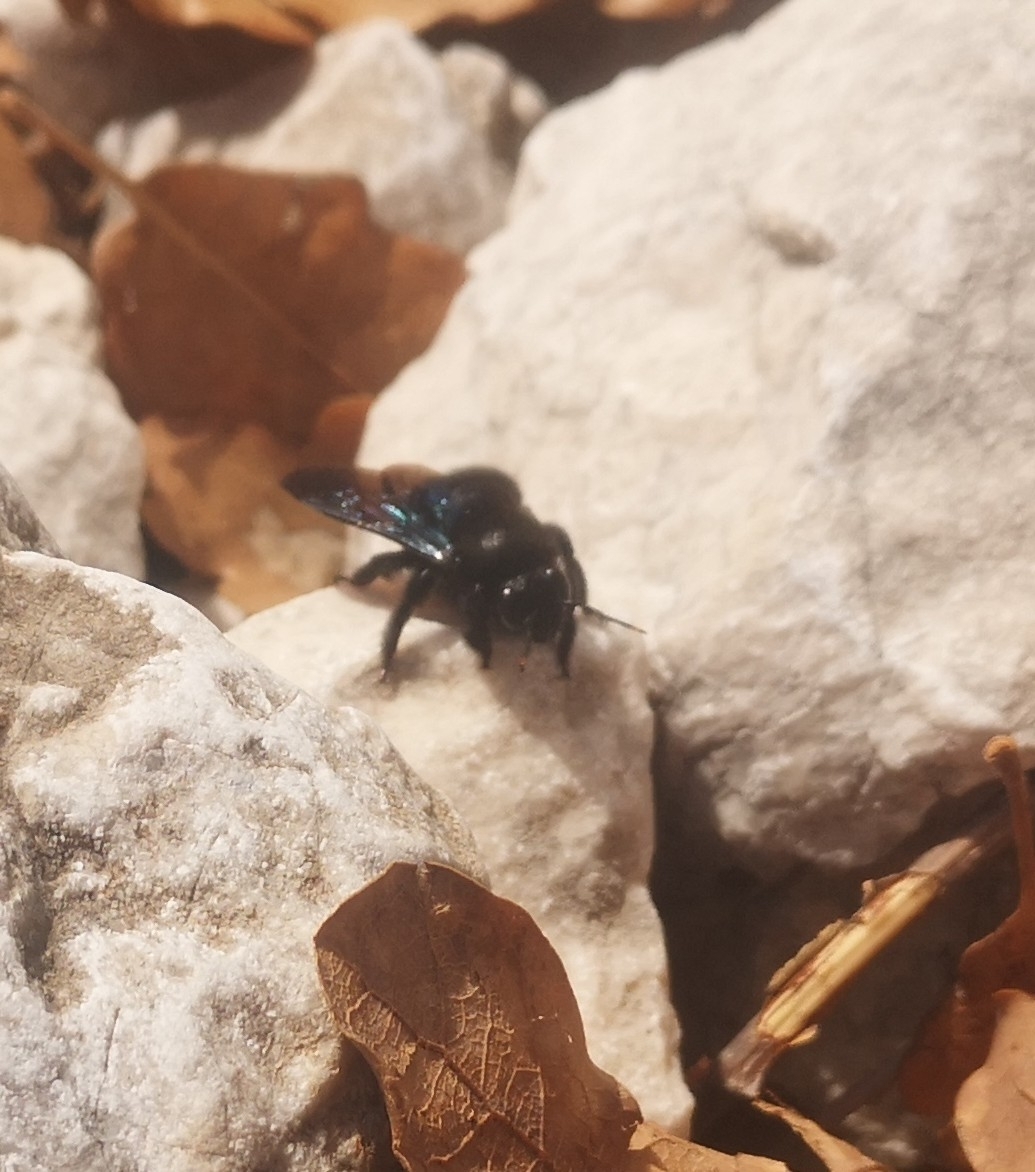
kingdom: Animalia
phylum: Arthropoda
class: Insecta
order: Hymenoptera
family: Apidae
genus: Xylocopa
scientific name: Xylocopa violacea
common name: Violet carpenter bee
